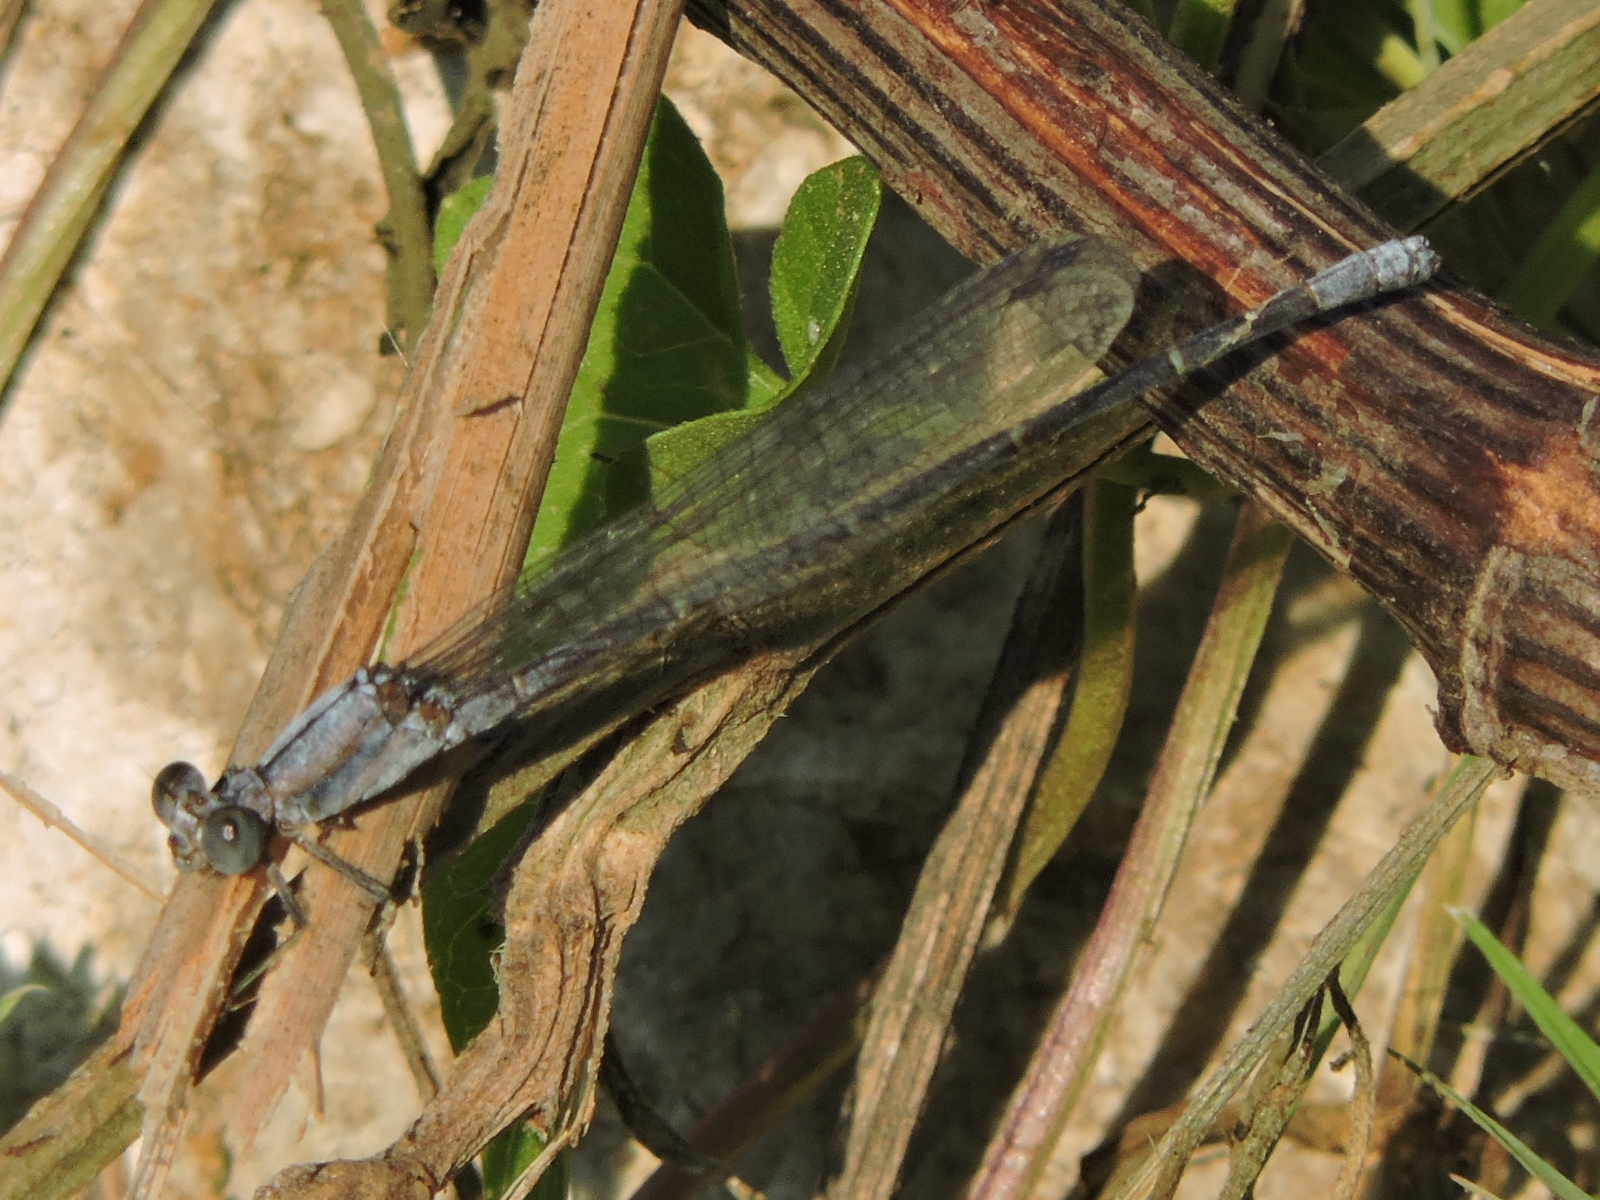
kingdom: Animalia
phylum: Arthropoda
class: Insecta
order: Odonata
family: Coenagrionidae
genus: Argia
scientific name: Argia moesta
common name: Powdered dancer
